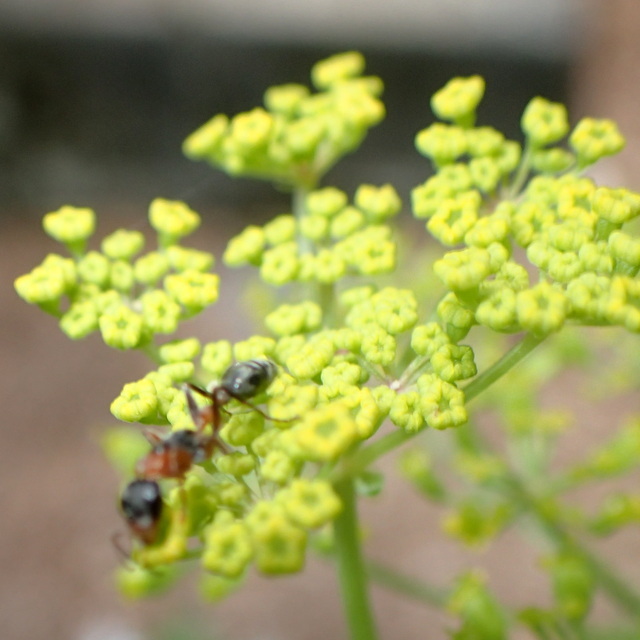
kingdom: Animalia
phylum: Arthropoda
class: Insecta
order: Hymenoptera
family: Formicidae
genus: Pseudomyrmex
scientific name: Pseudomyrmex gracilis
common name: Graceful twig ant
